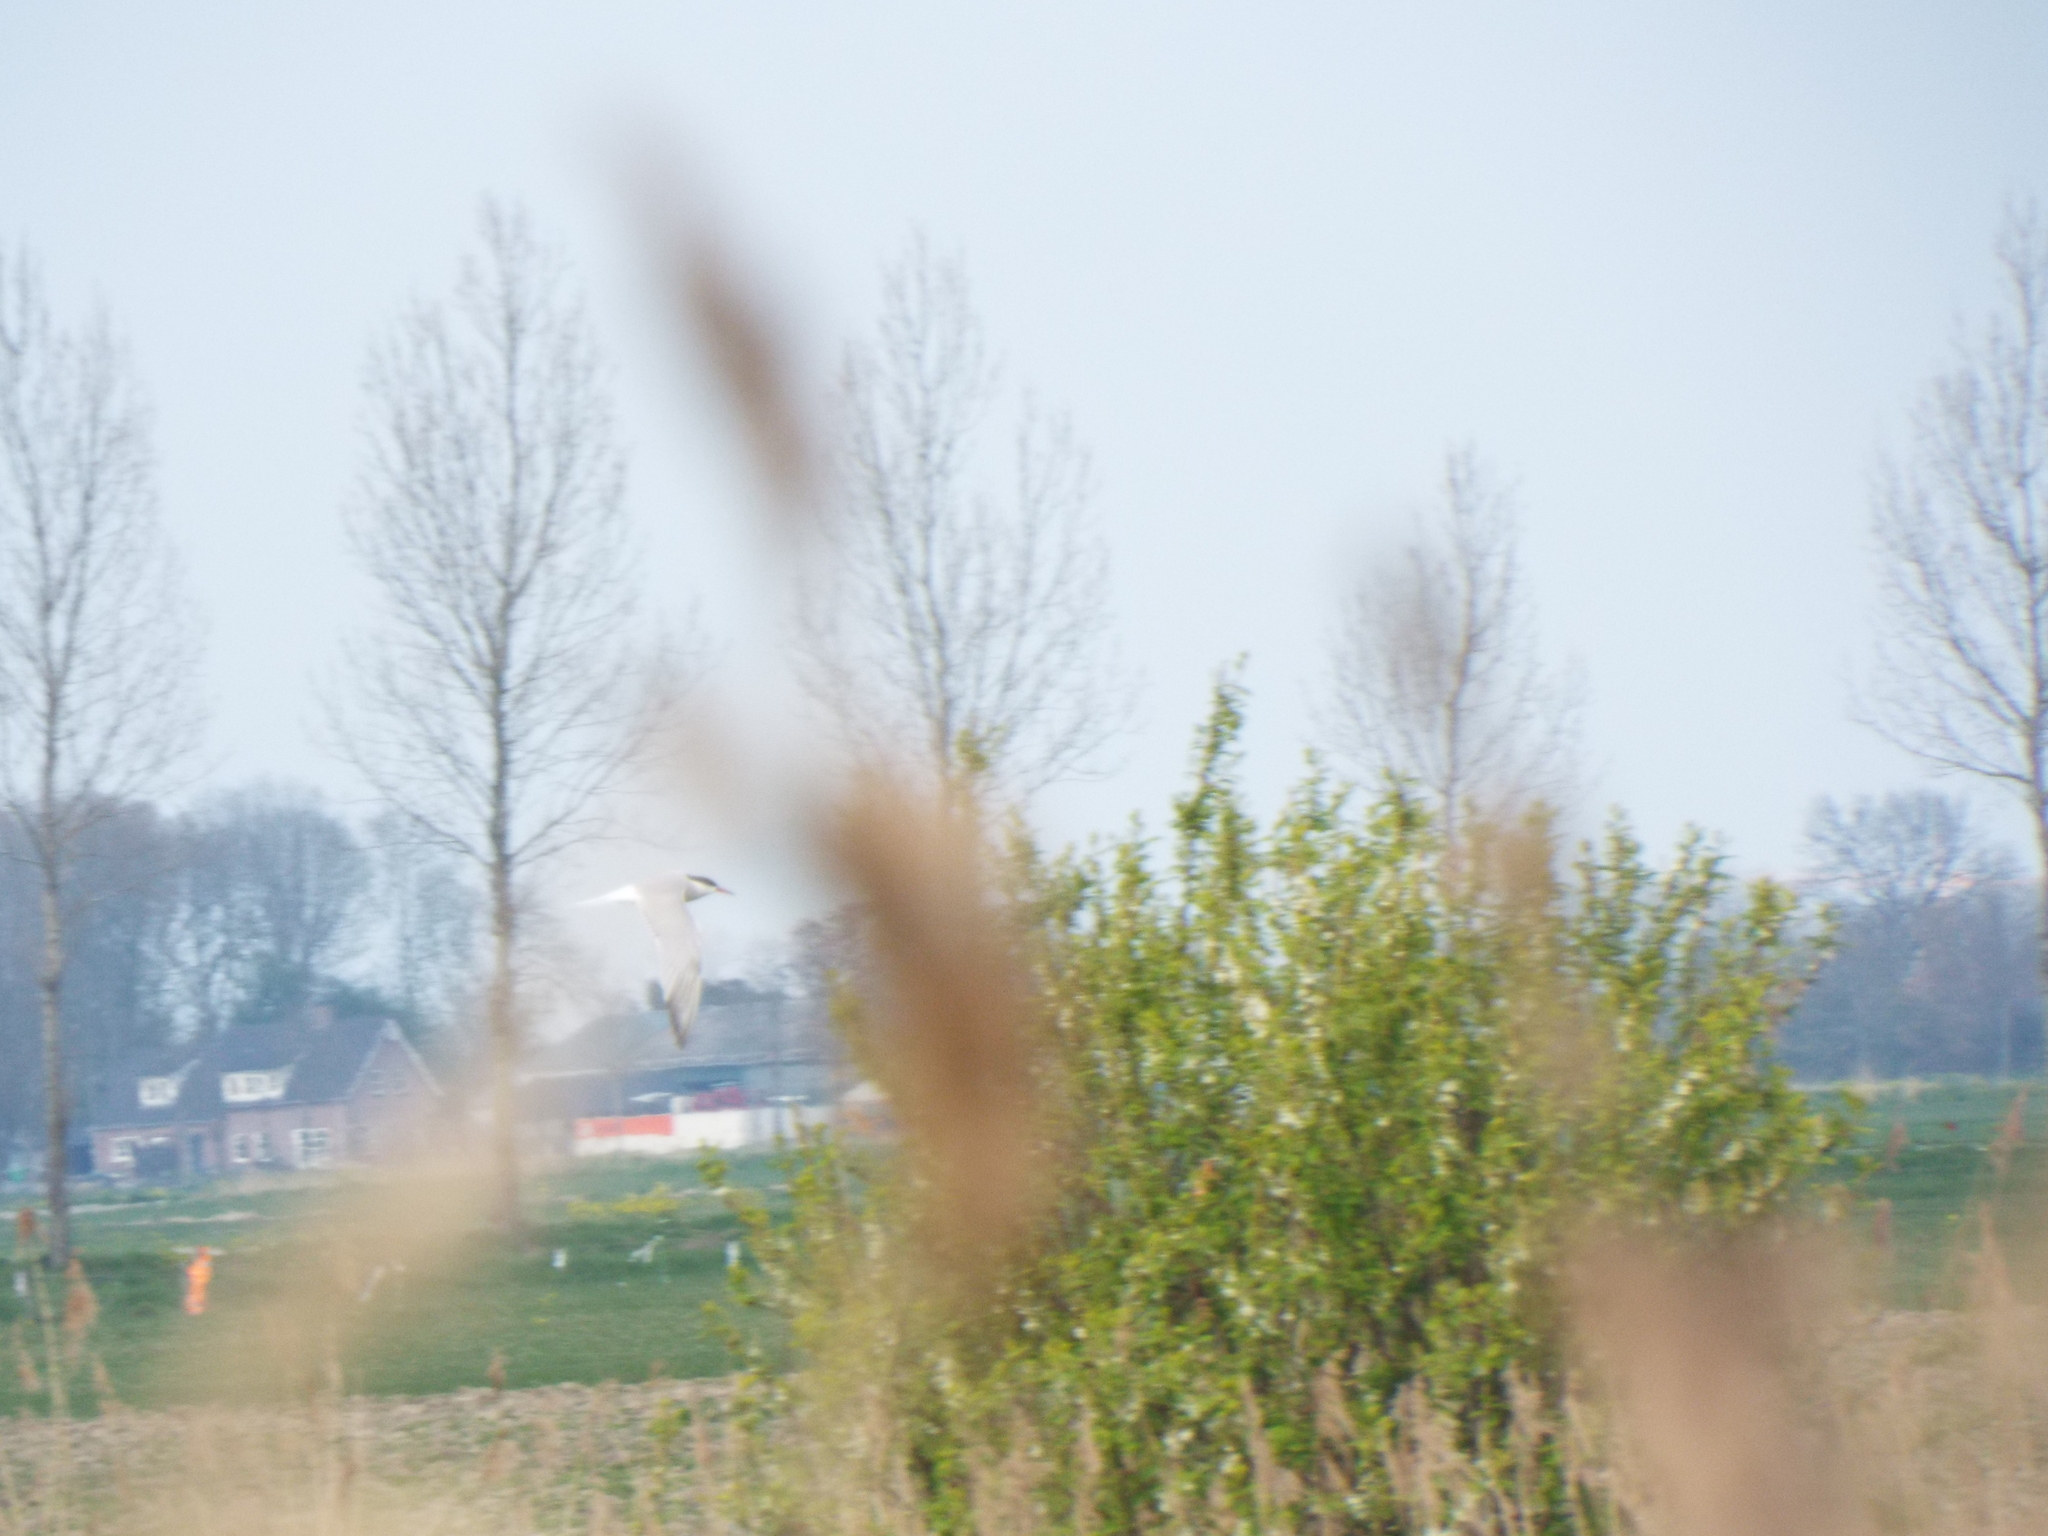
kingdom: Animalia
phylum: Chordata
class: Aves
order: Charadriiformes
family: Laridae
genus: Sterna
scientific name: Sterna hirundo
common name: Common tern
